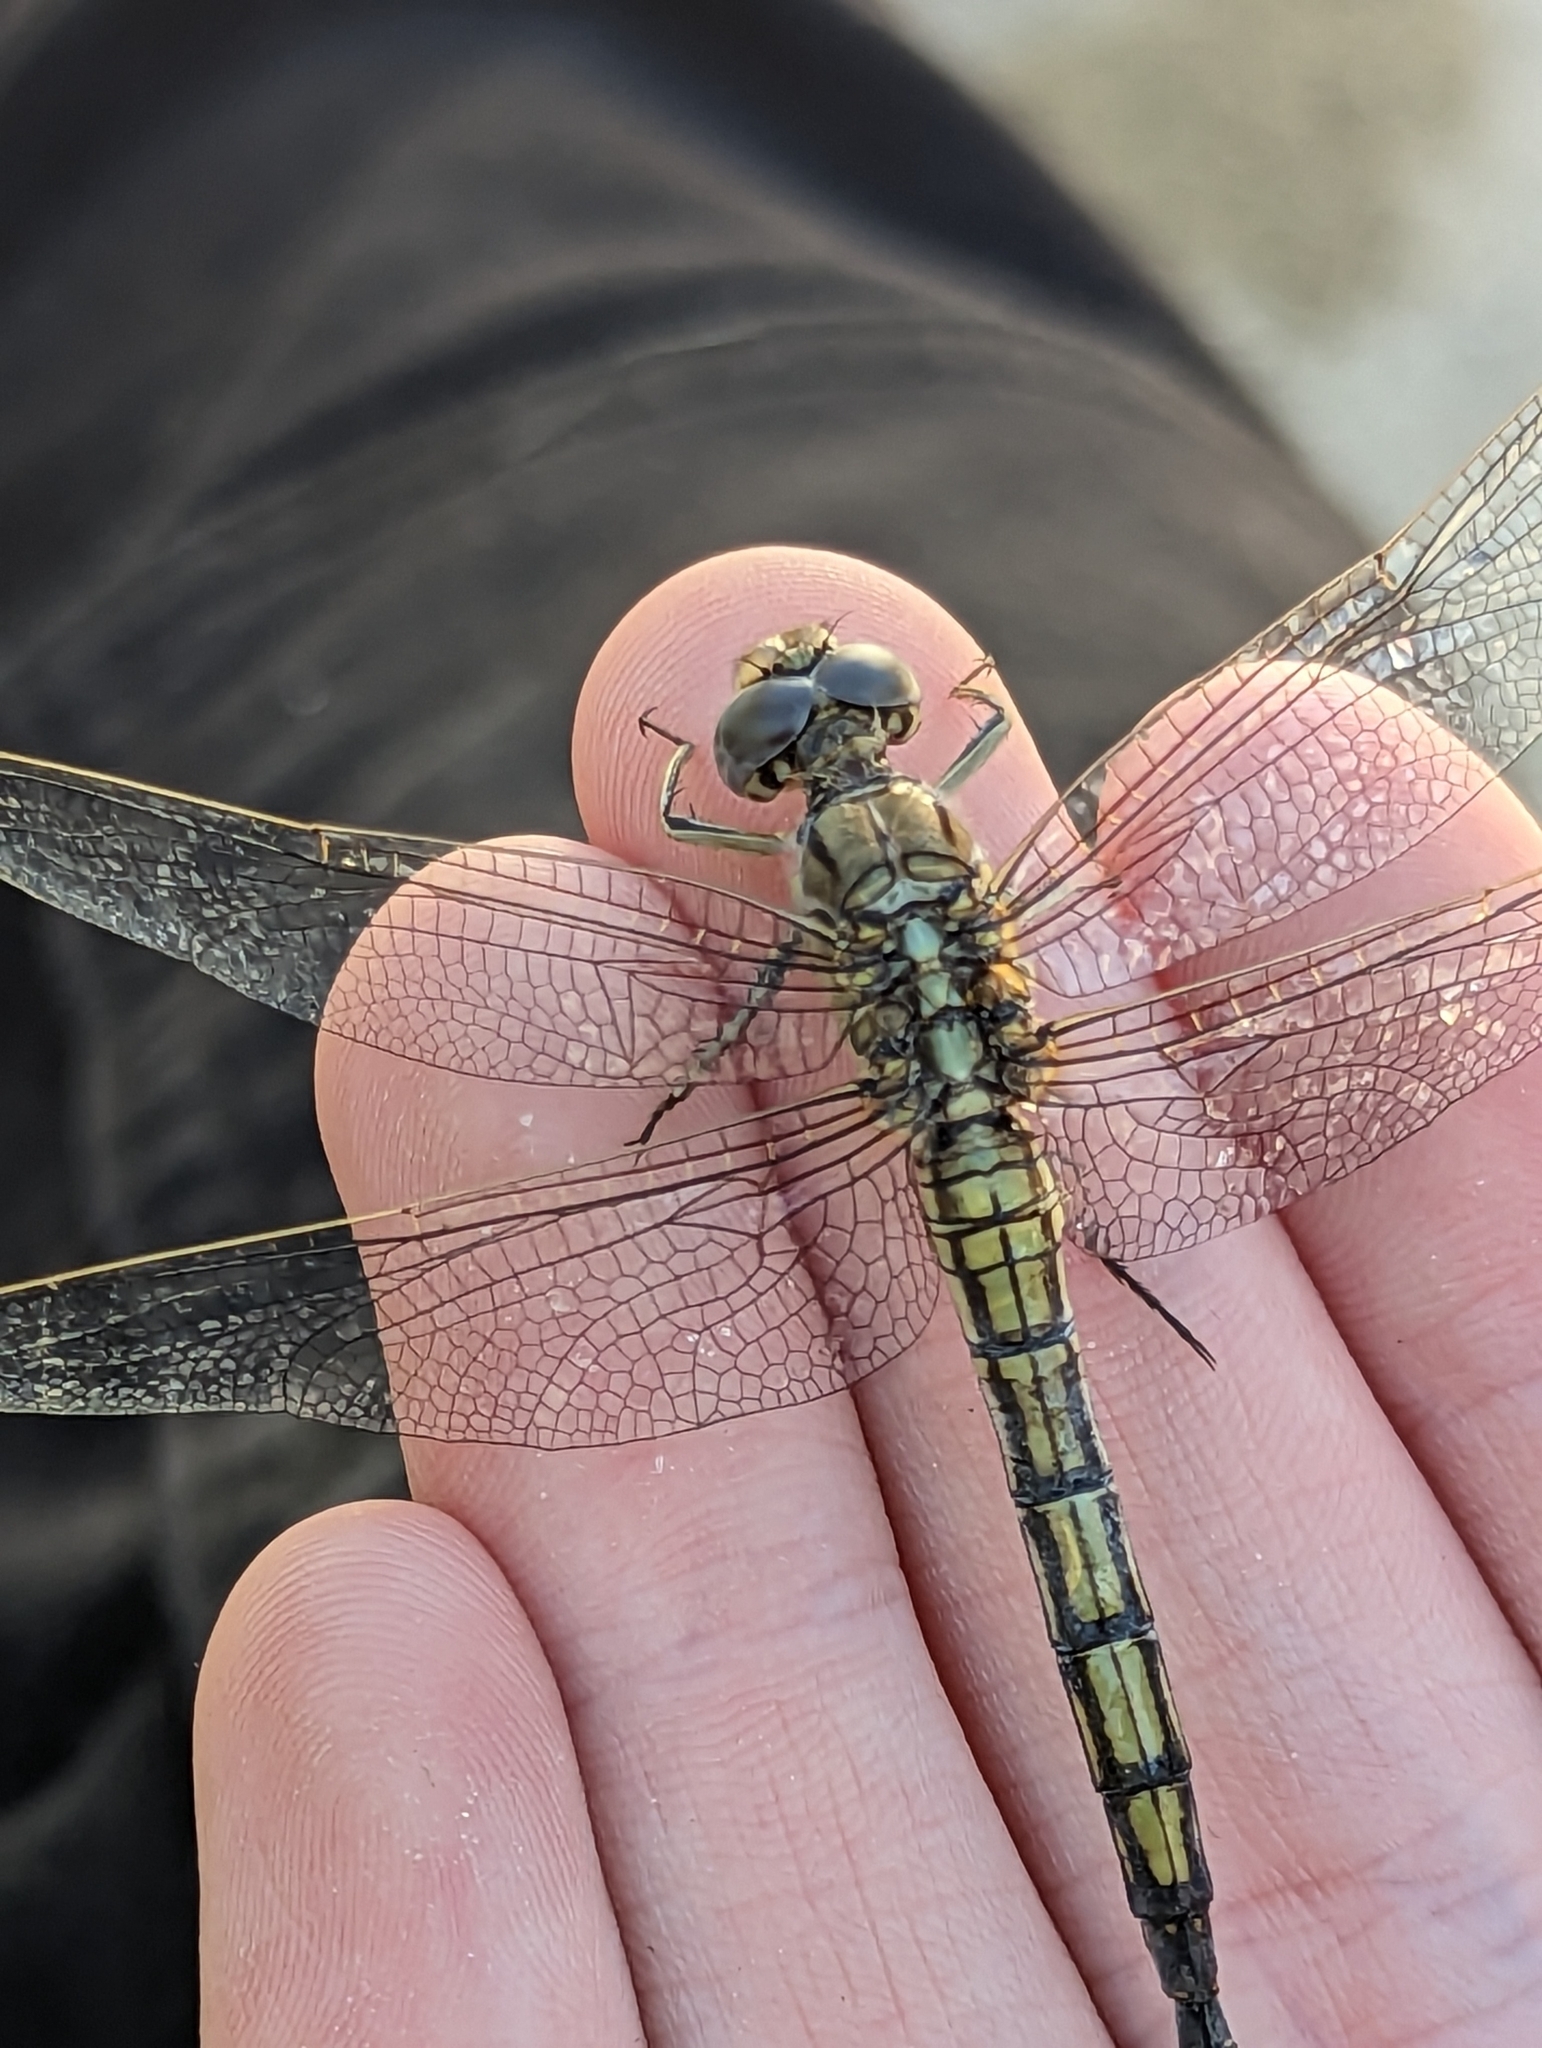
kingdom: Animalia
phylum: Arthropoda
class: Insecta
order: Odonata
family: Libellulidae
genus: Orthetrum
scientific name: Orthetrum caledonicum
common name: Blue skimmer
